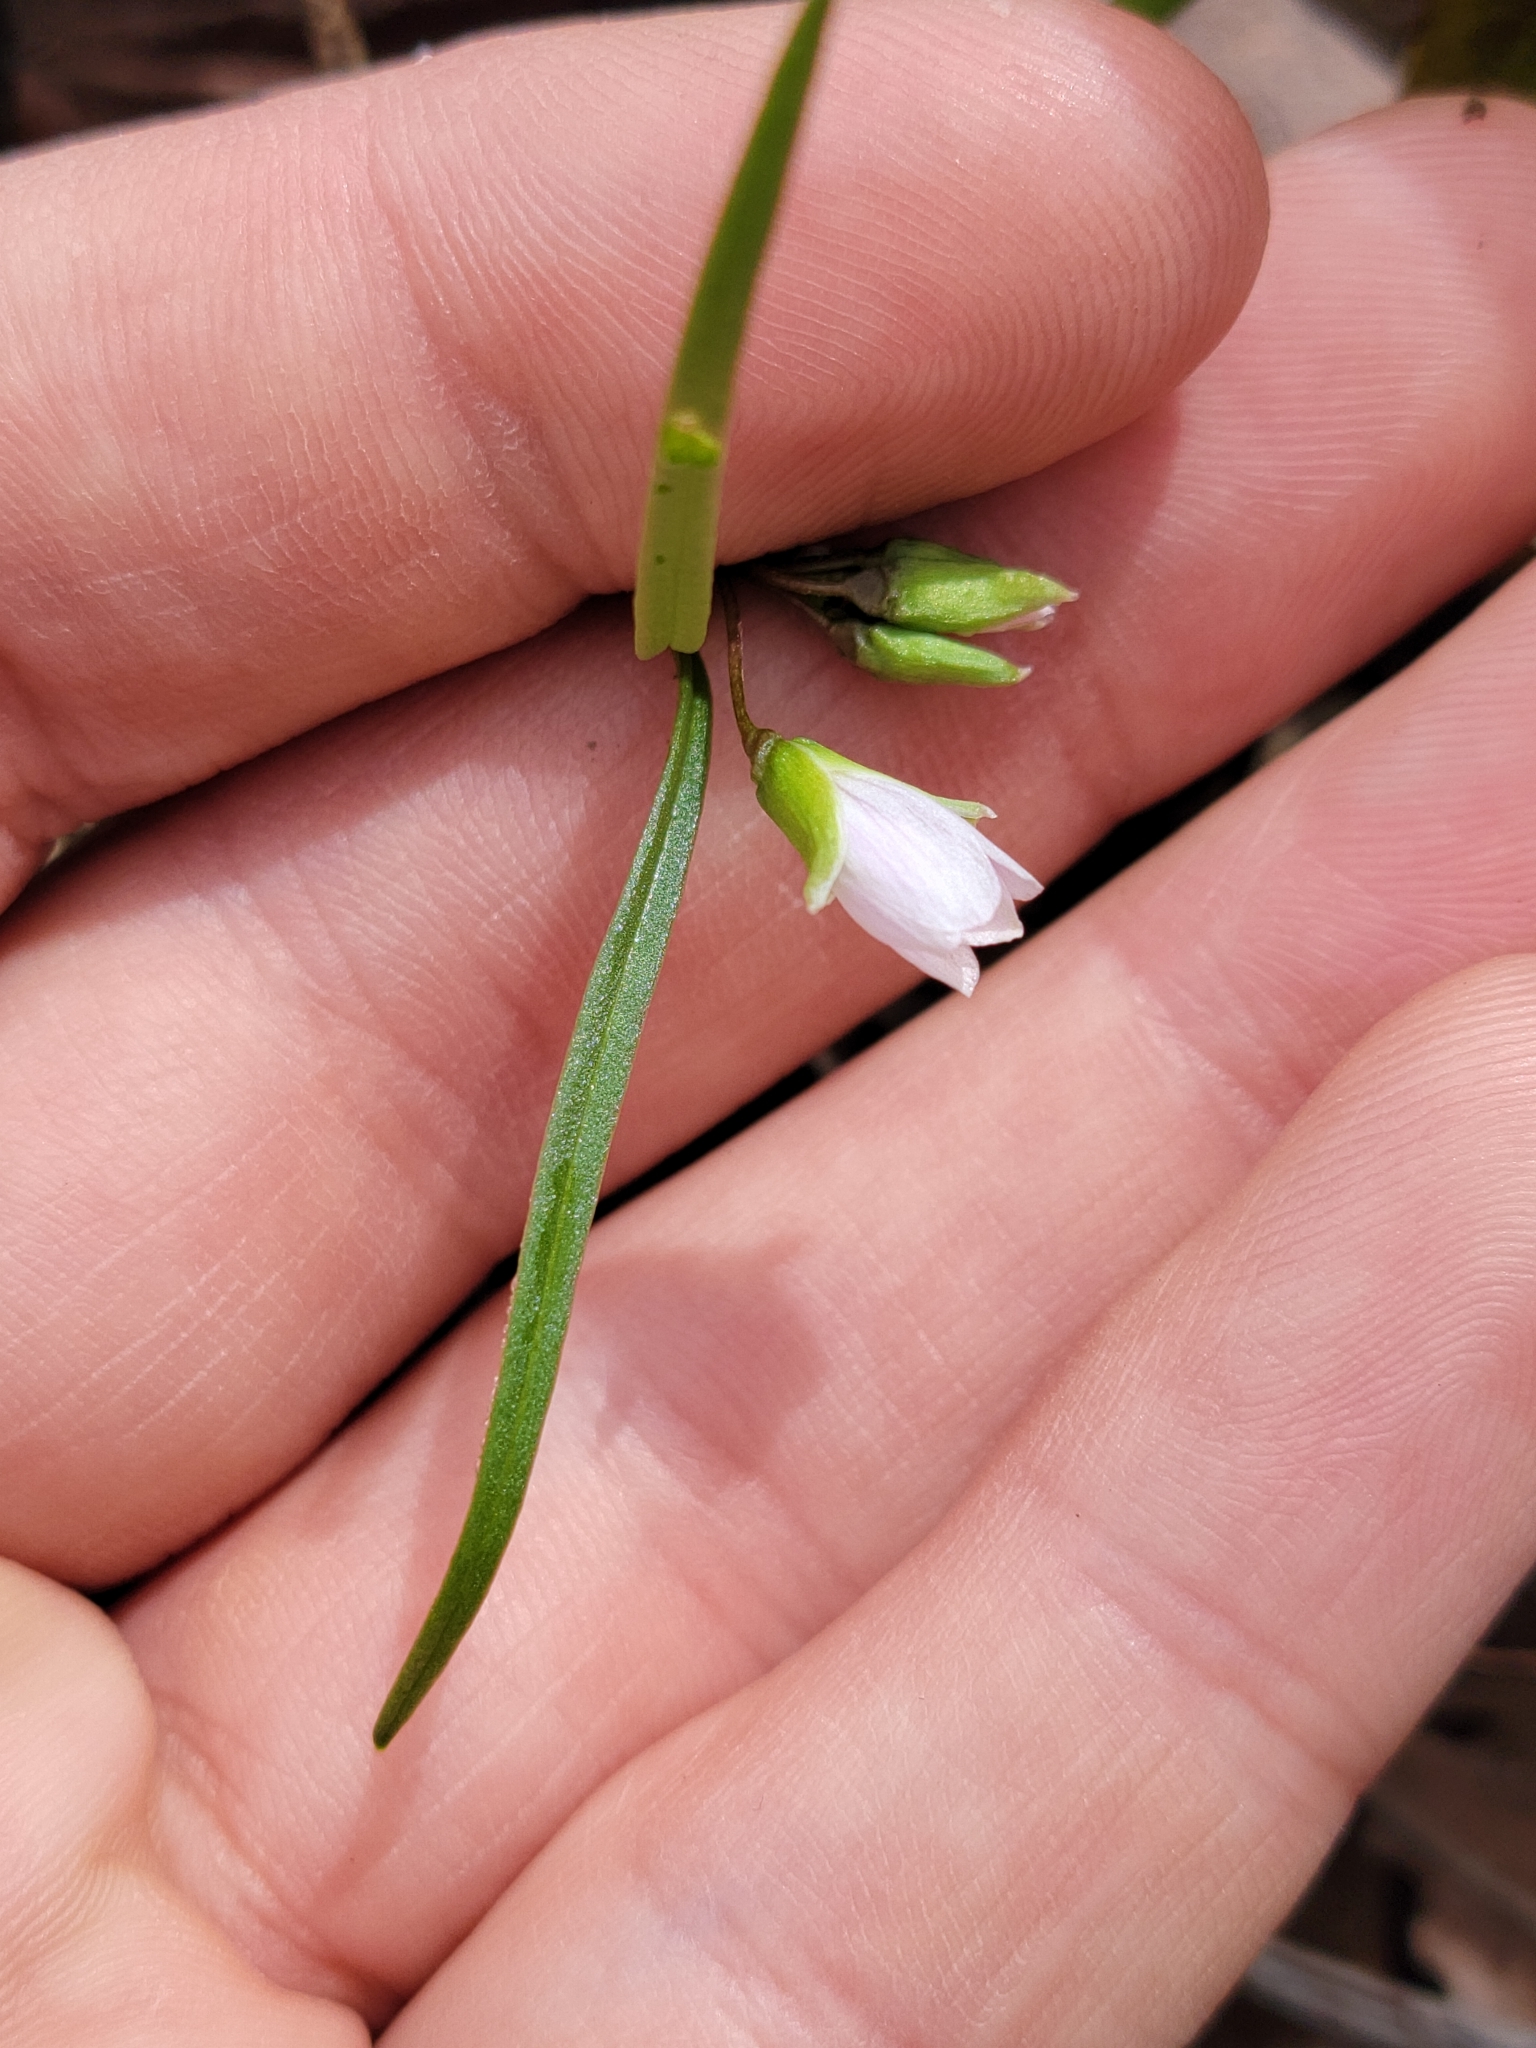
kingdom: Plantae
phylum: Tracheophyta
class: Magnoliopsida
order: Caryophyllales
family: Montiaceae
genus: Claytonia
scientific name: Claytonia virginica
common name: Virginia springbeauty
